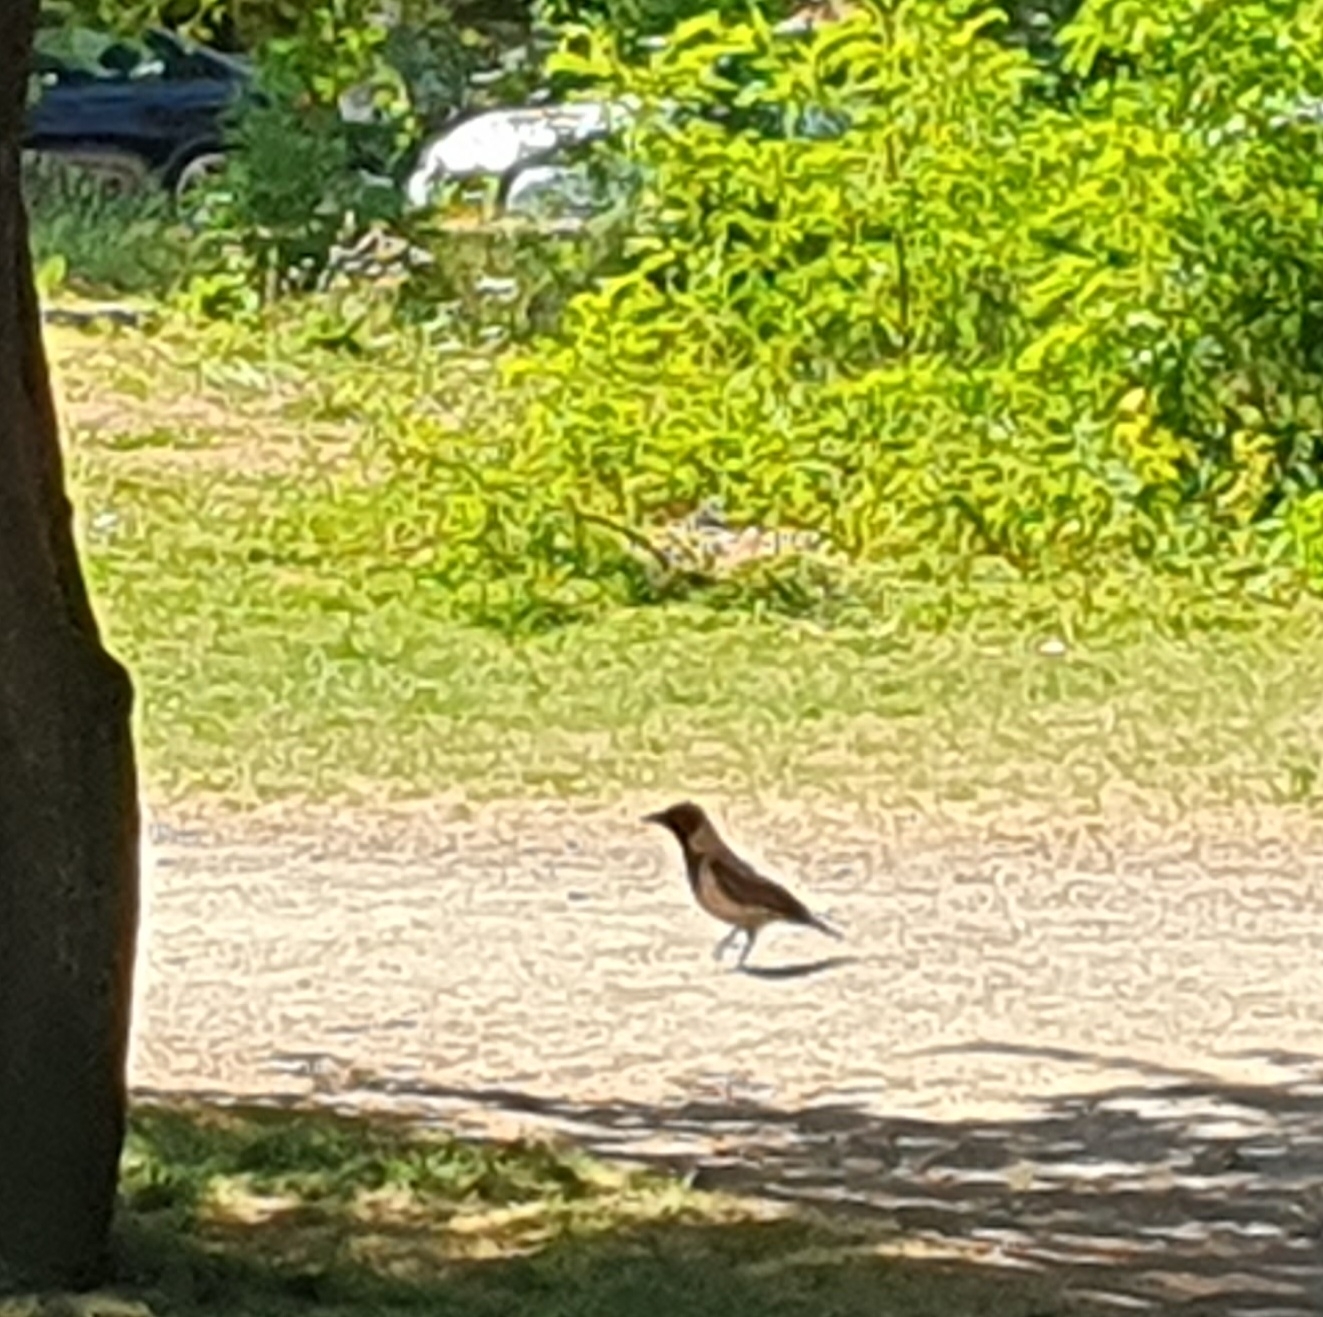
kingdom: Animalia
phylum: Chordata
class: Aves
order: Passeriformes
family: Corvidae
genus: Corvus
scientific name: Corvus cornix
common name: Hooded crow
